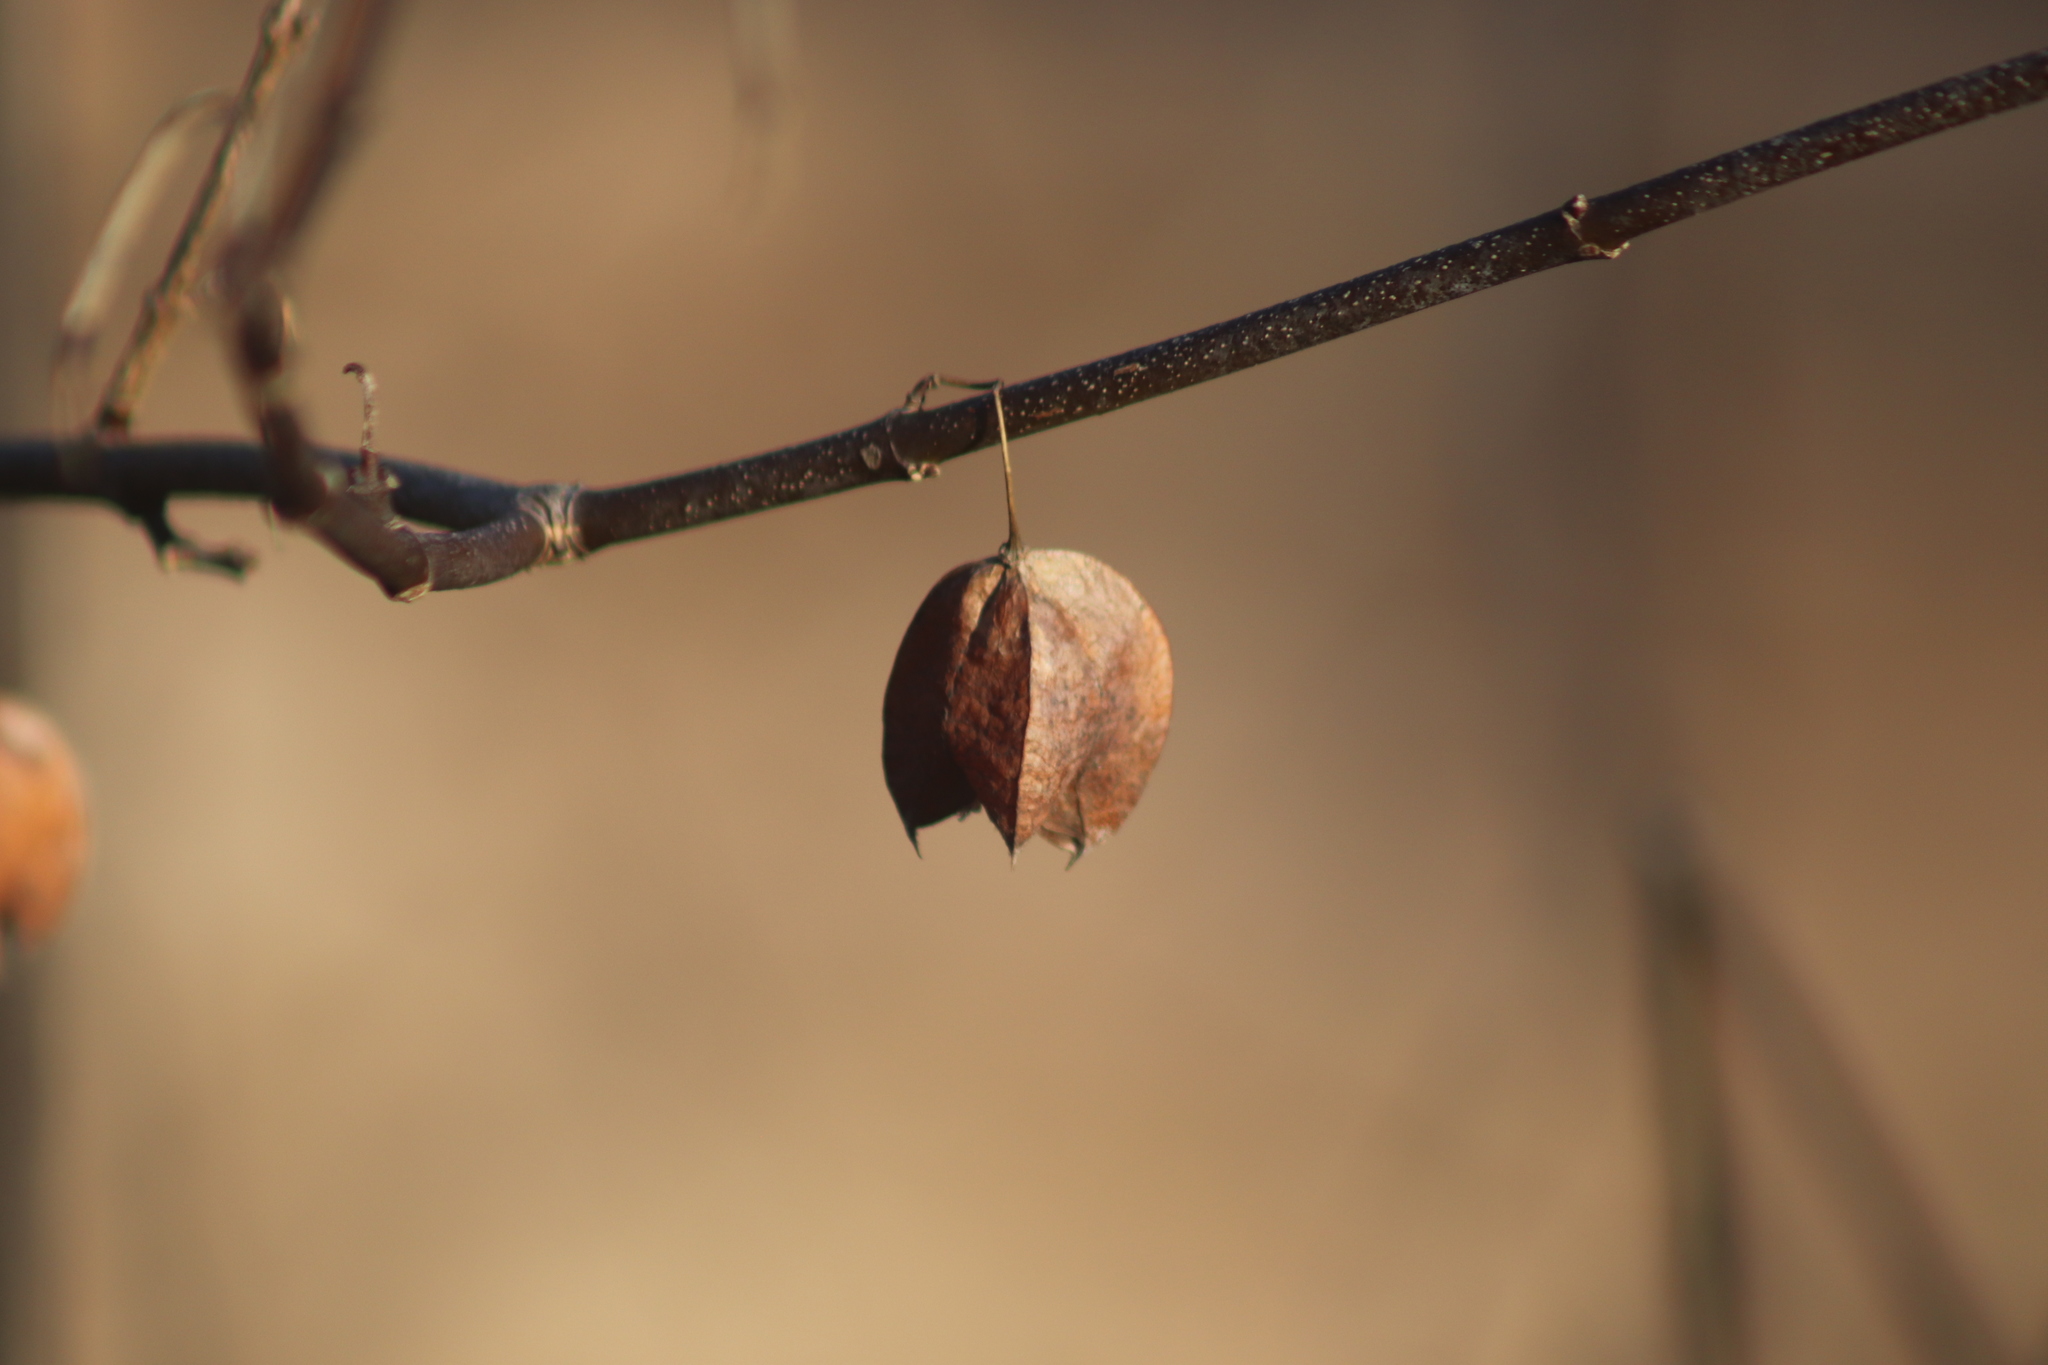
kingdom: Plantae
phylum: Tracheophyta
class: Magnoliopsida
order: Crossosomatales
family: Staphyleaceae
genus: Staphylea
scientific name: Staphylea trifolia
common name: American bladdernut
